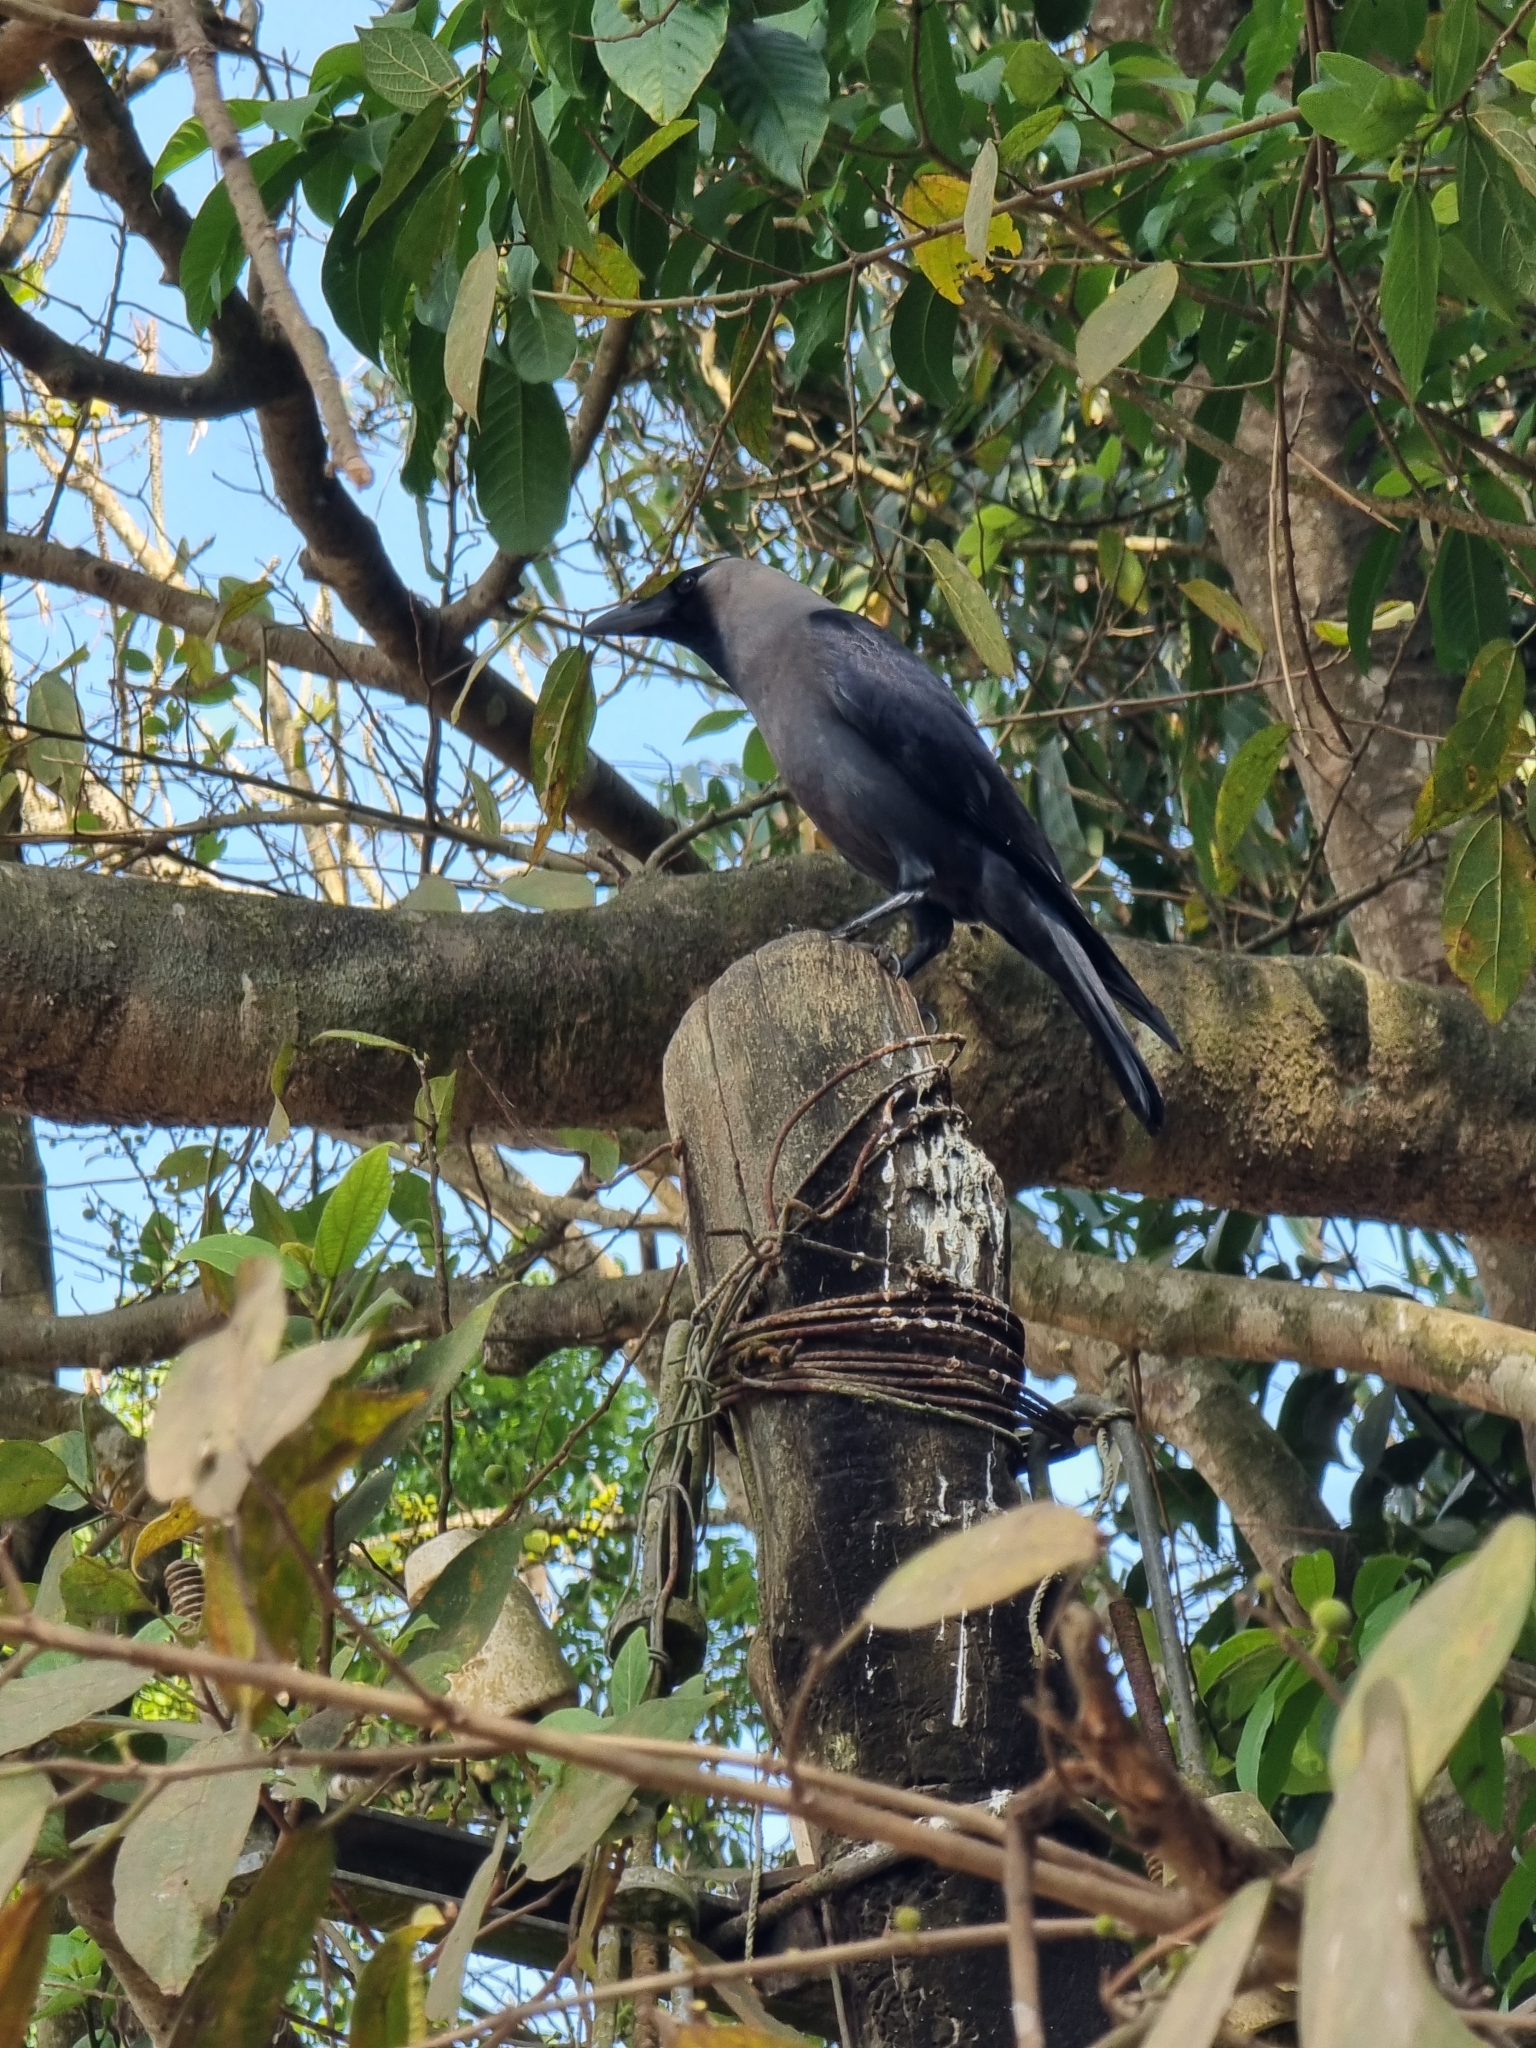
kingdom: Animalia
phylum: Chordata
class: Aves
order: Passeriformes
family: Corvidae
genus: Corvus
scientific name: Corvus splendens
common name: House crow
